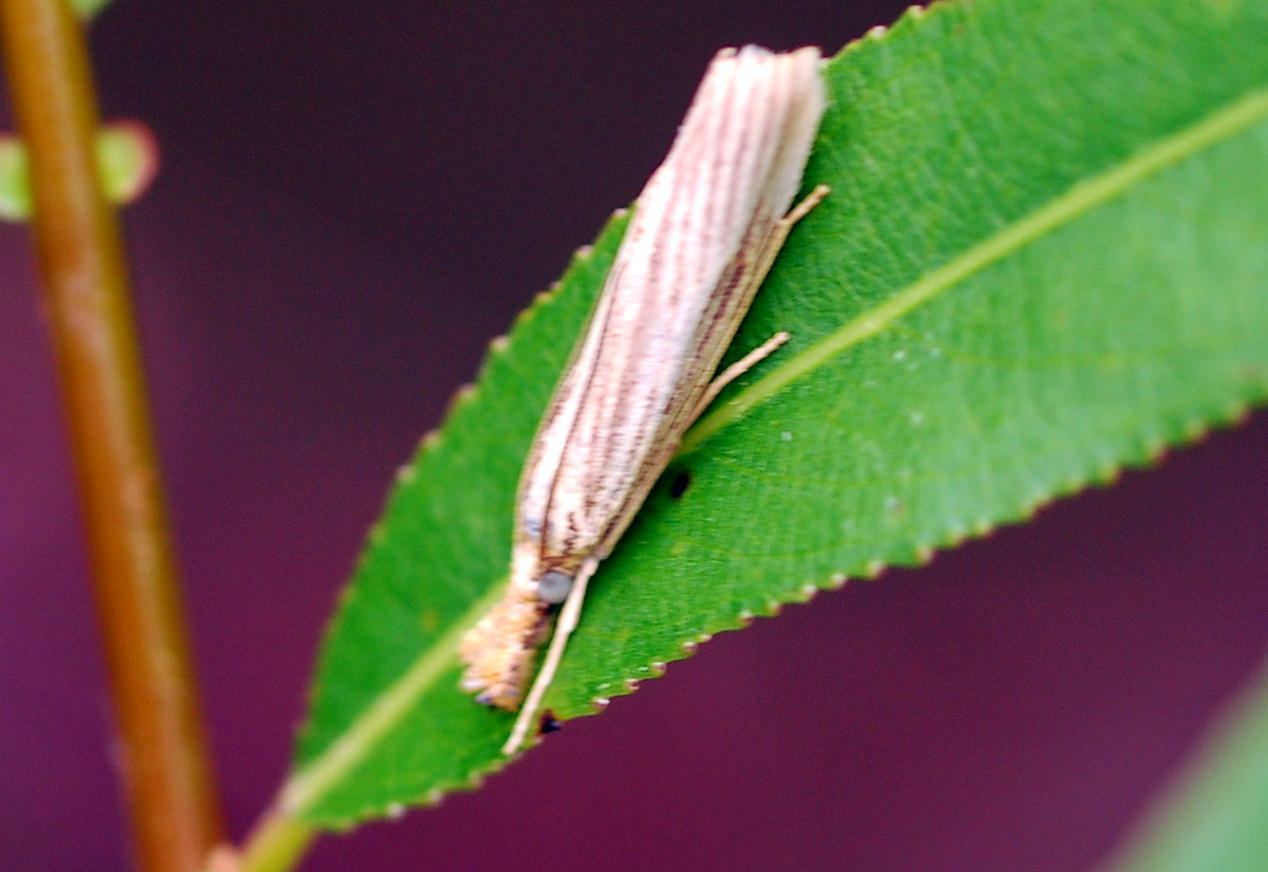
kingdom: Animalia
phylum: Arthropoda
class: Insecta
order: Lepidoptera
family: Crambidae
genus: Agriphila
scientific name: Agriphila vulgivagellus
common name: Vagabond crambus moth
